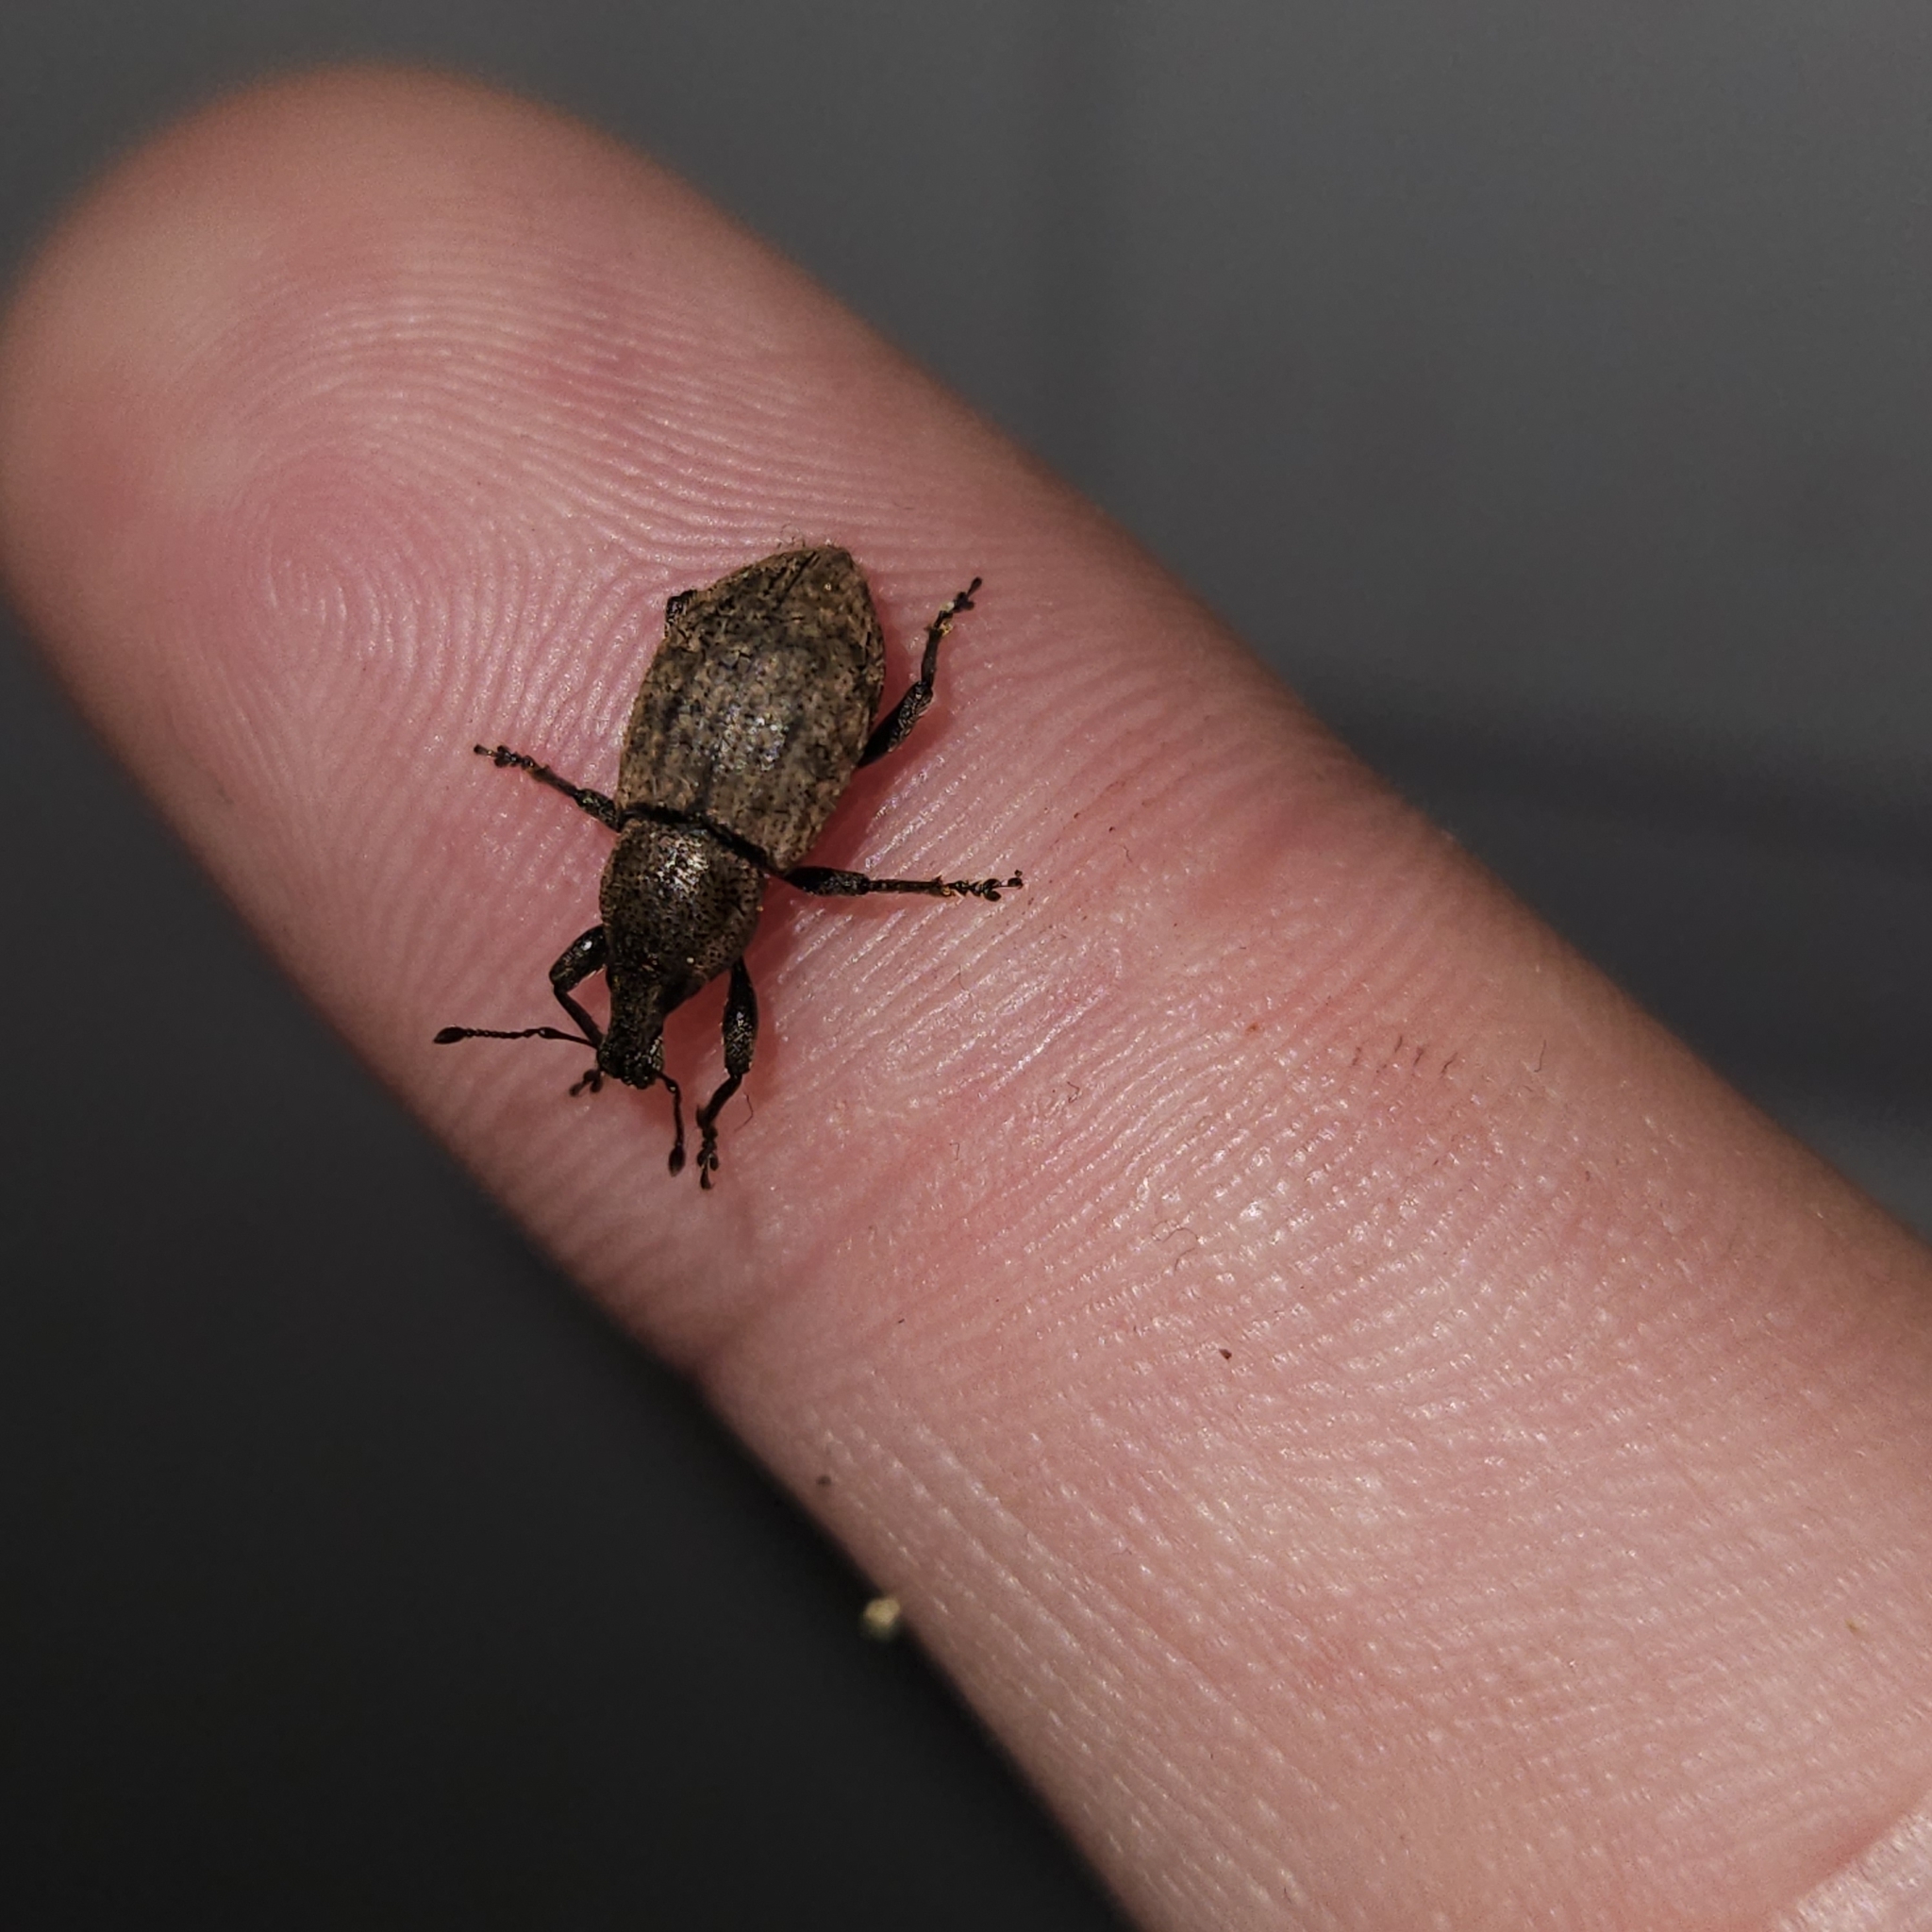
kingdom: Animalia
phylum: Arthropoda
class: Insecta
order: Coleoptera
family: Curculionidae
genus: Barynotus
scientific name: Barynotus obscurus
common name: Weevil
